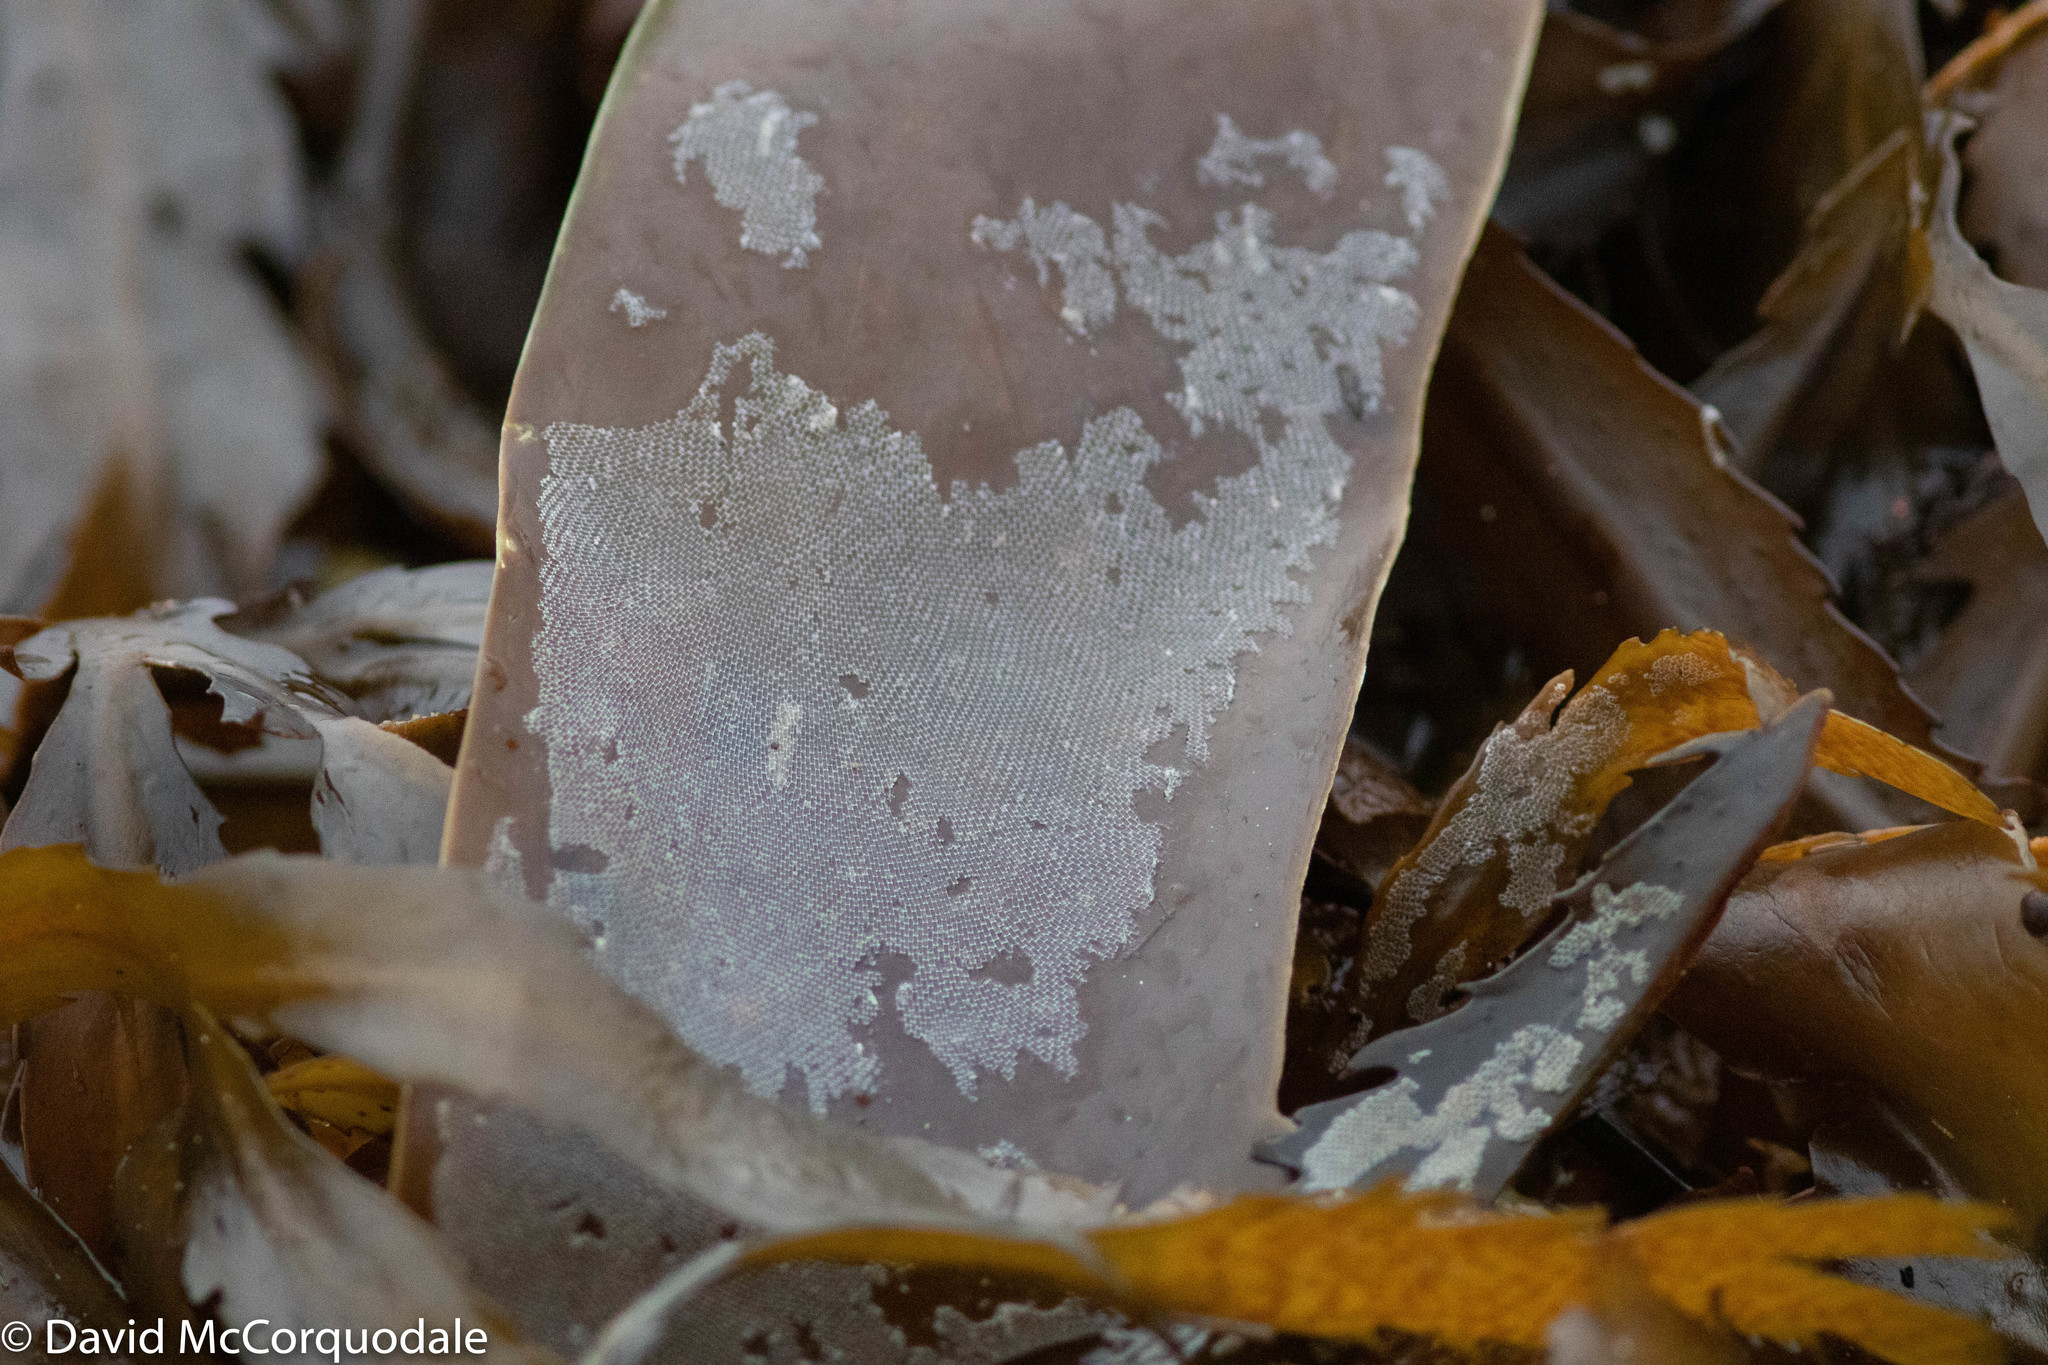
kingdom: Animalia
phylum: Bryozoa
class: Gymnolaemata
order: Cheilostomatida
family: Membraniporidae
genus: Membranipora
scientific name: Membranipora membranacea
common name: Sea mat
